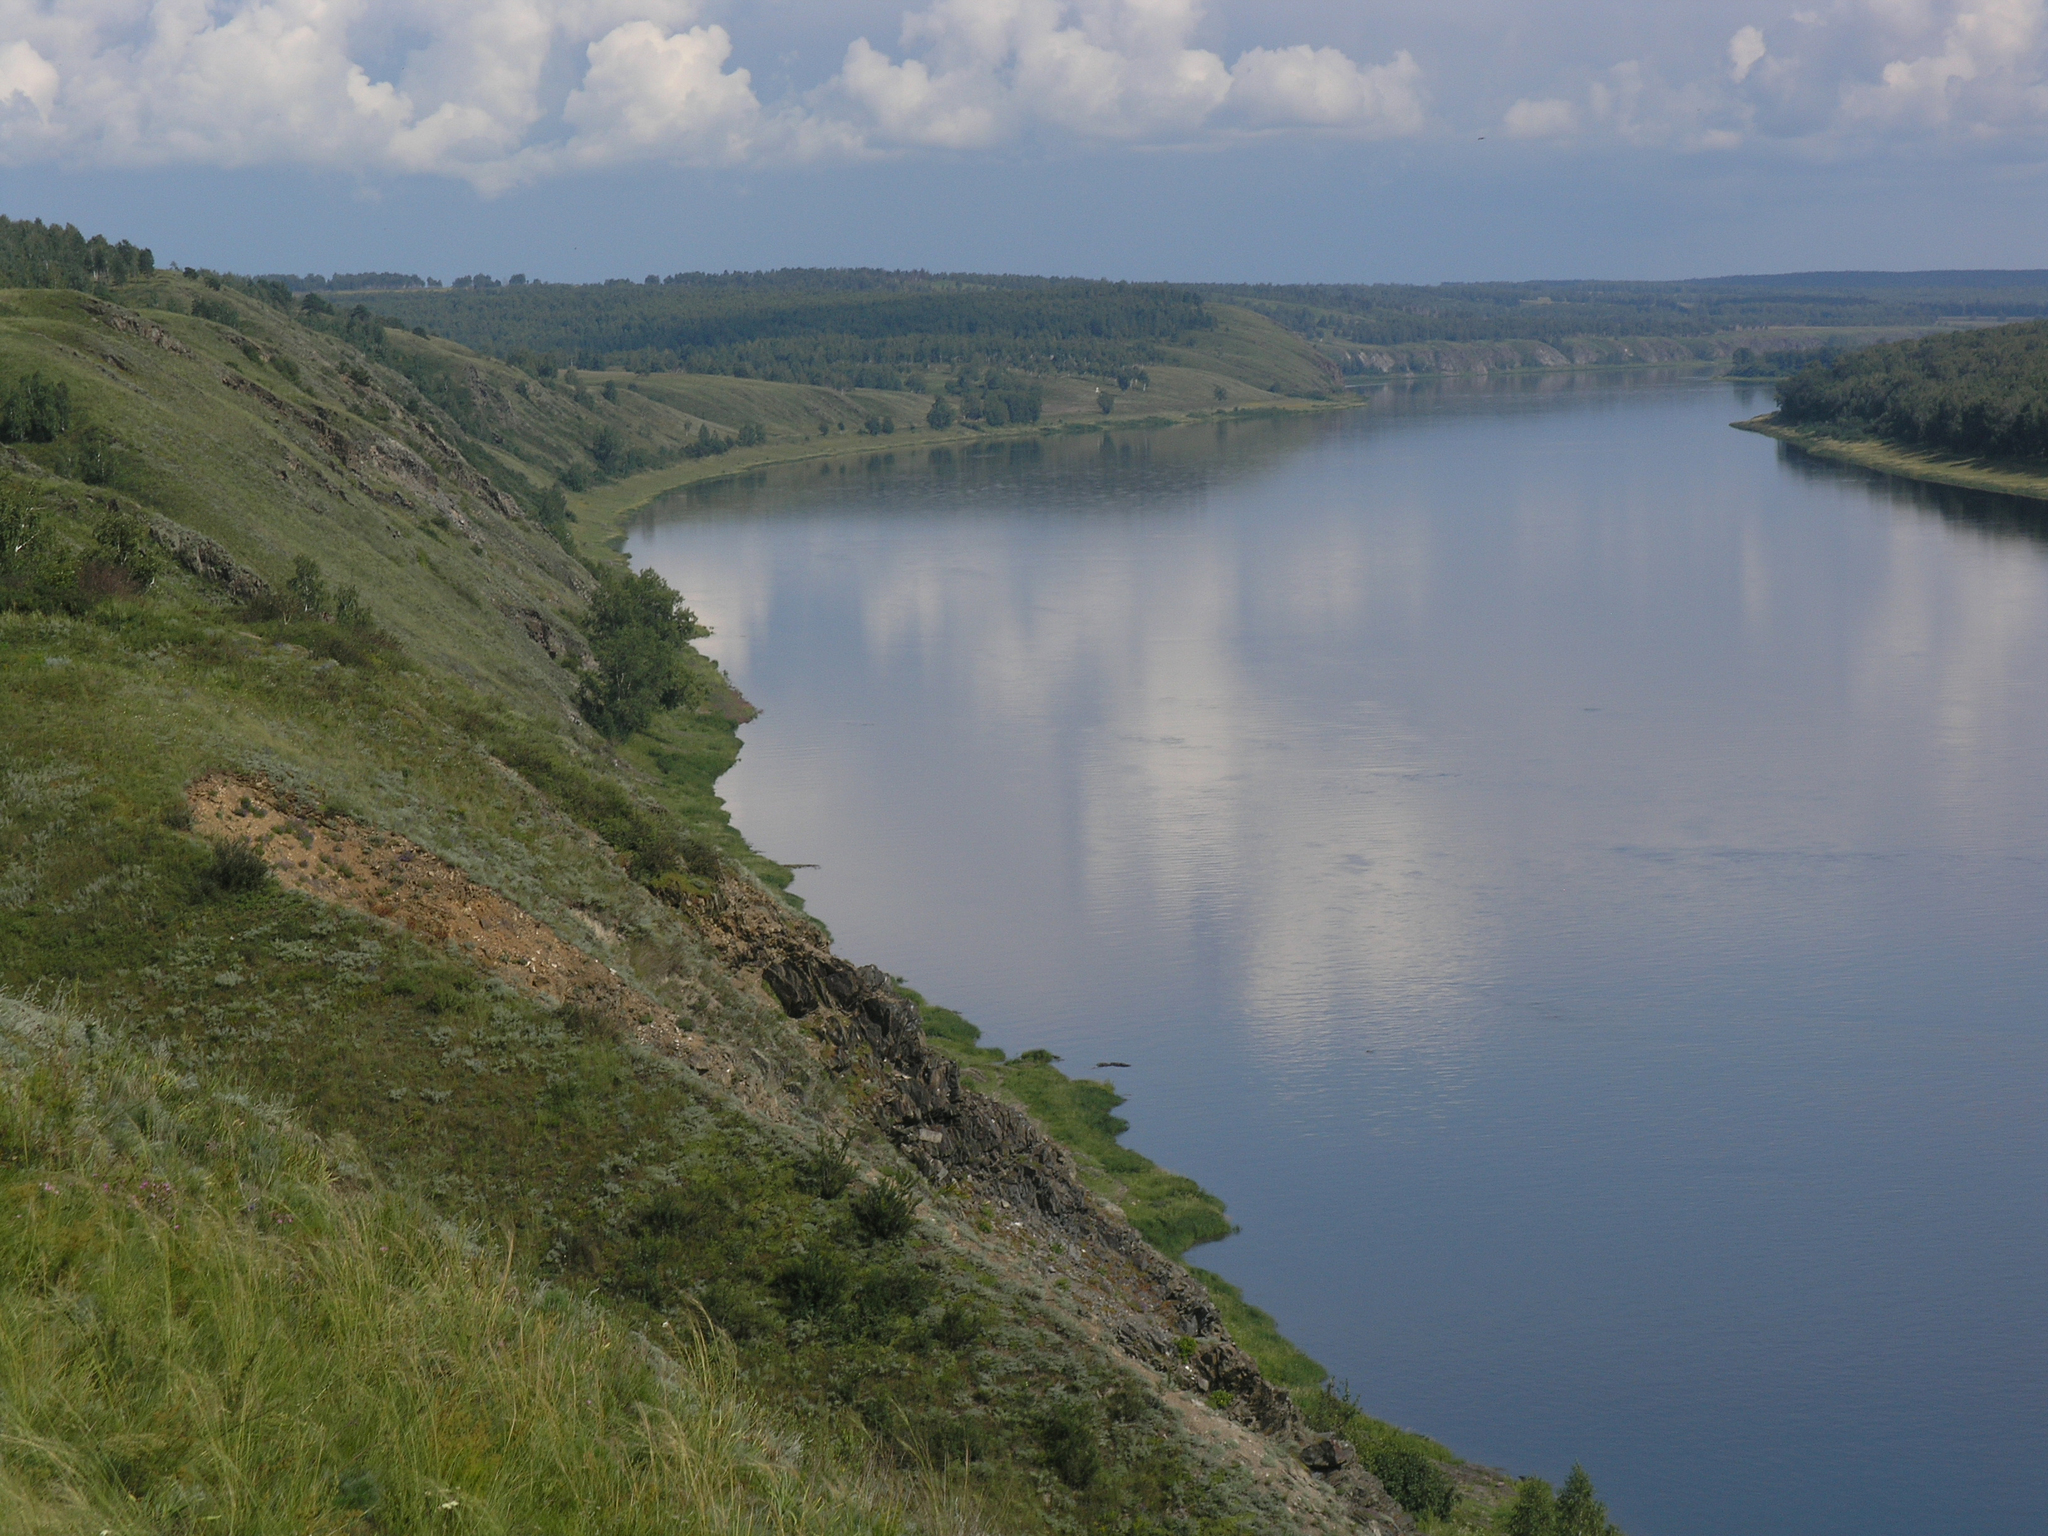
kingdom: Plantae
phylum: Tracheophyta
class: Liliopsida
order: Poales
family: Poaceae
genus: Stipa
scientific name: Stipa capillata
